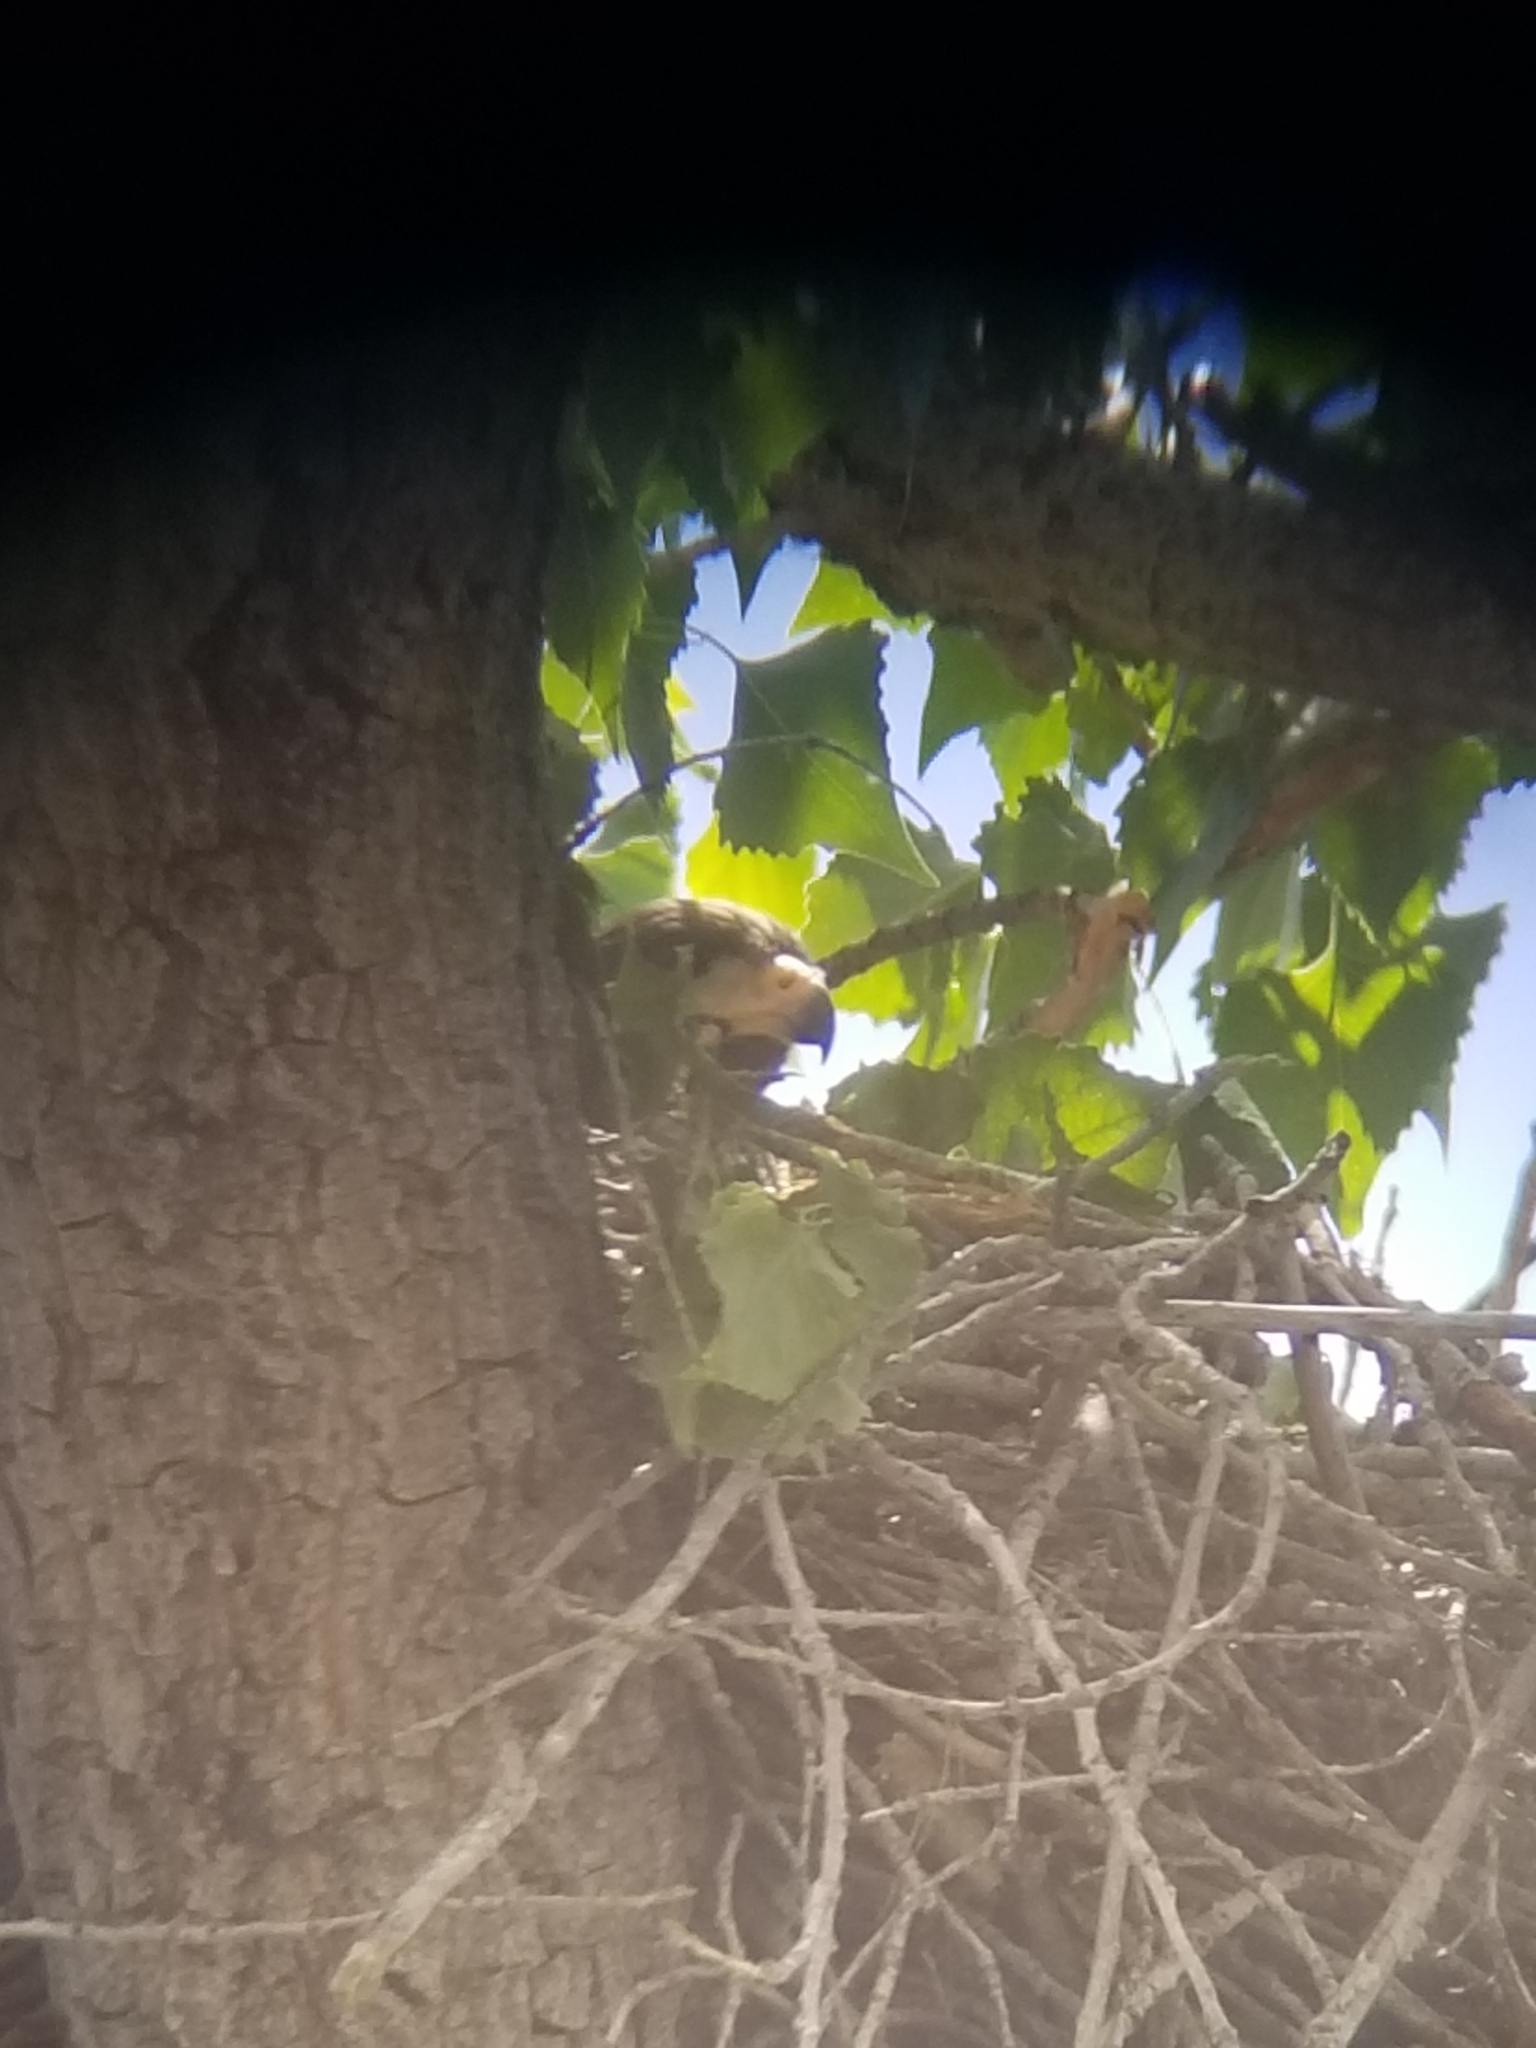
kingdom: Animalia
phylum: Chordata
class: Aves
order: Accipitriformes
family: Accipitridae
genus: Buteogallus
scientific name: Buteogallus anthracinus
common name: Common black hawk
